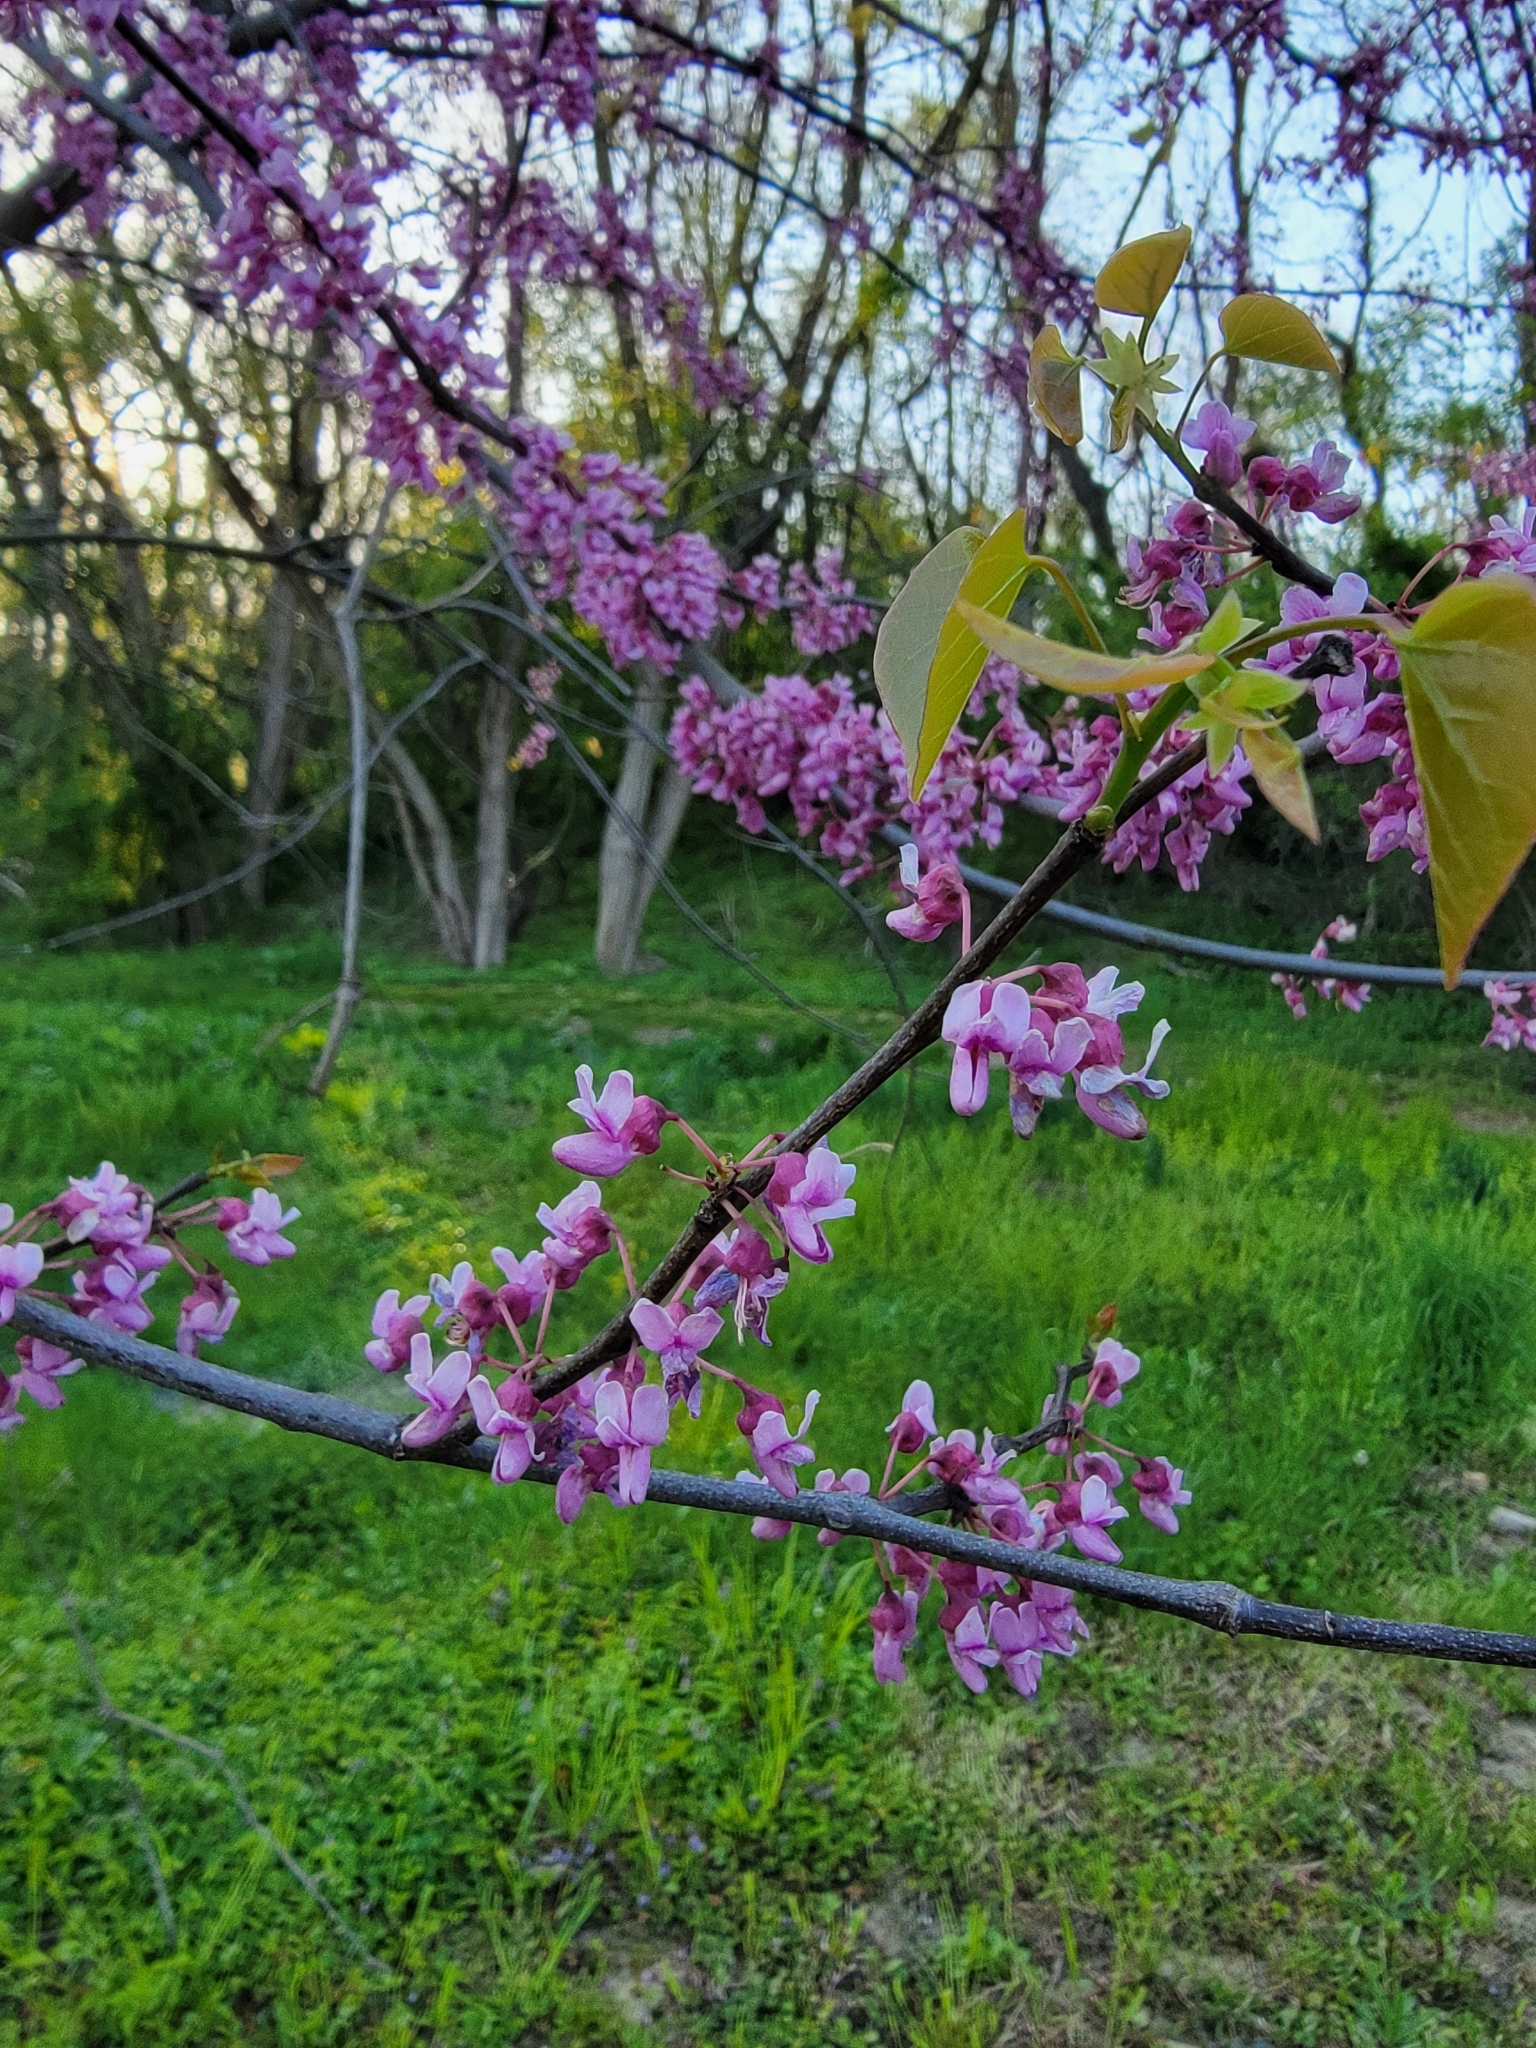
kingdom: Plantae
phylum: Tracheophyta
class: Magnoliopsida
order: Fabales
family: Fabaceae
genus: Cercis
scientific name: Cercis canadensis
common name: Eastern redbud
